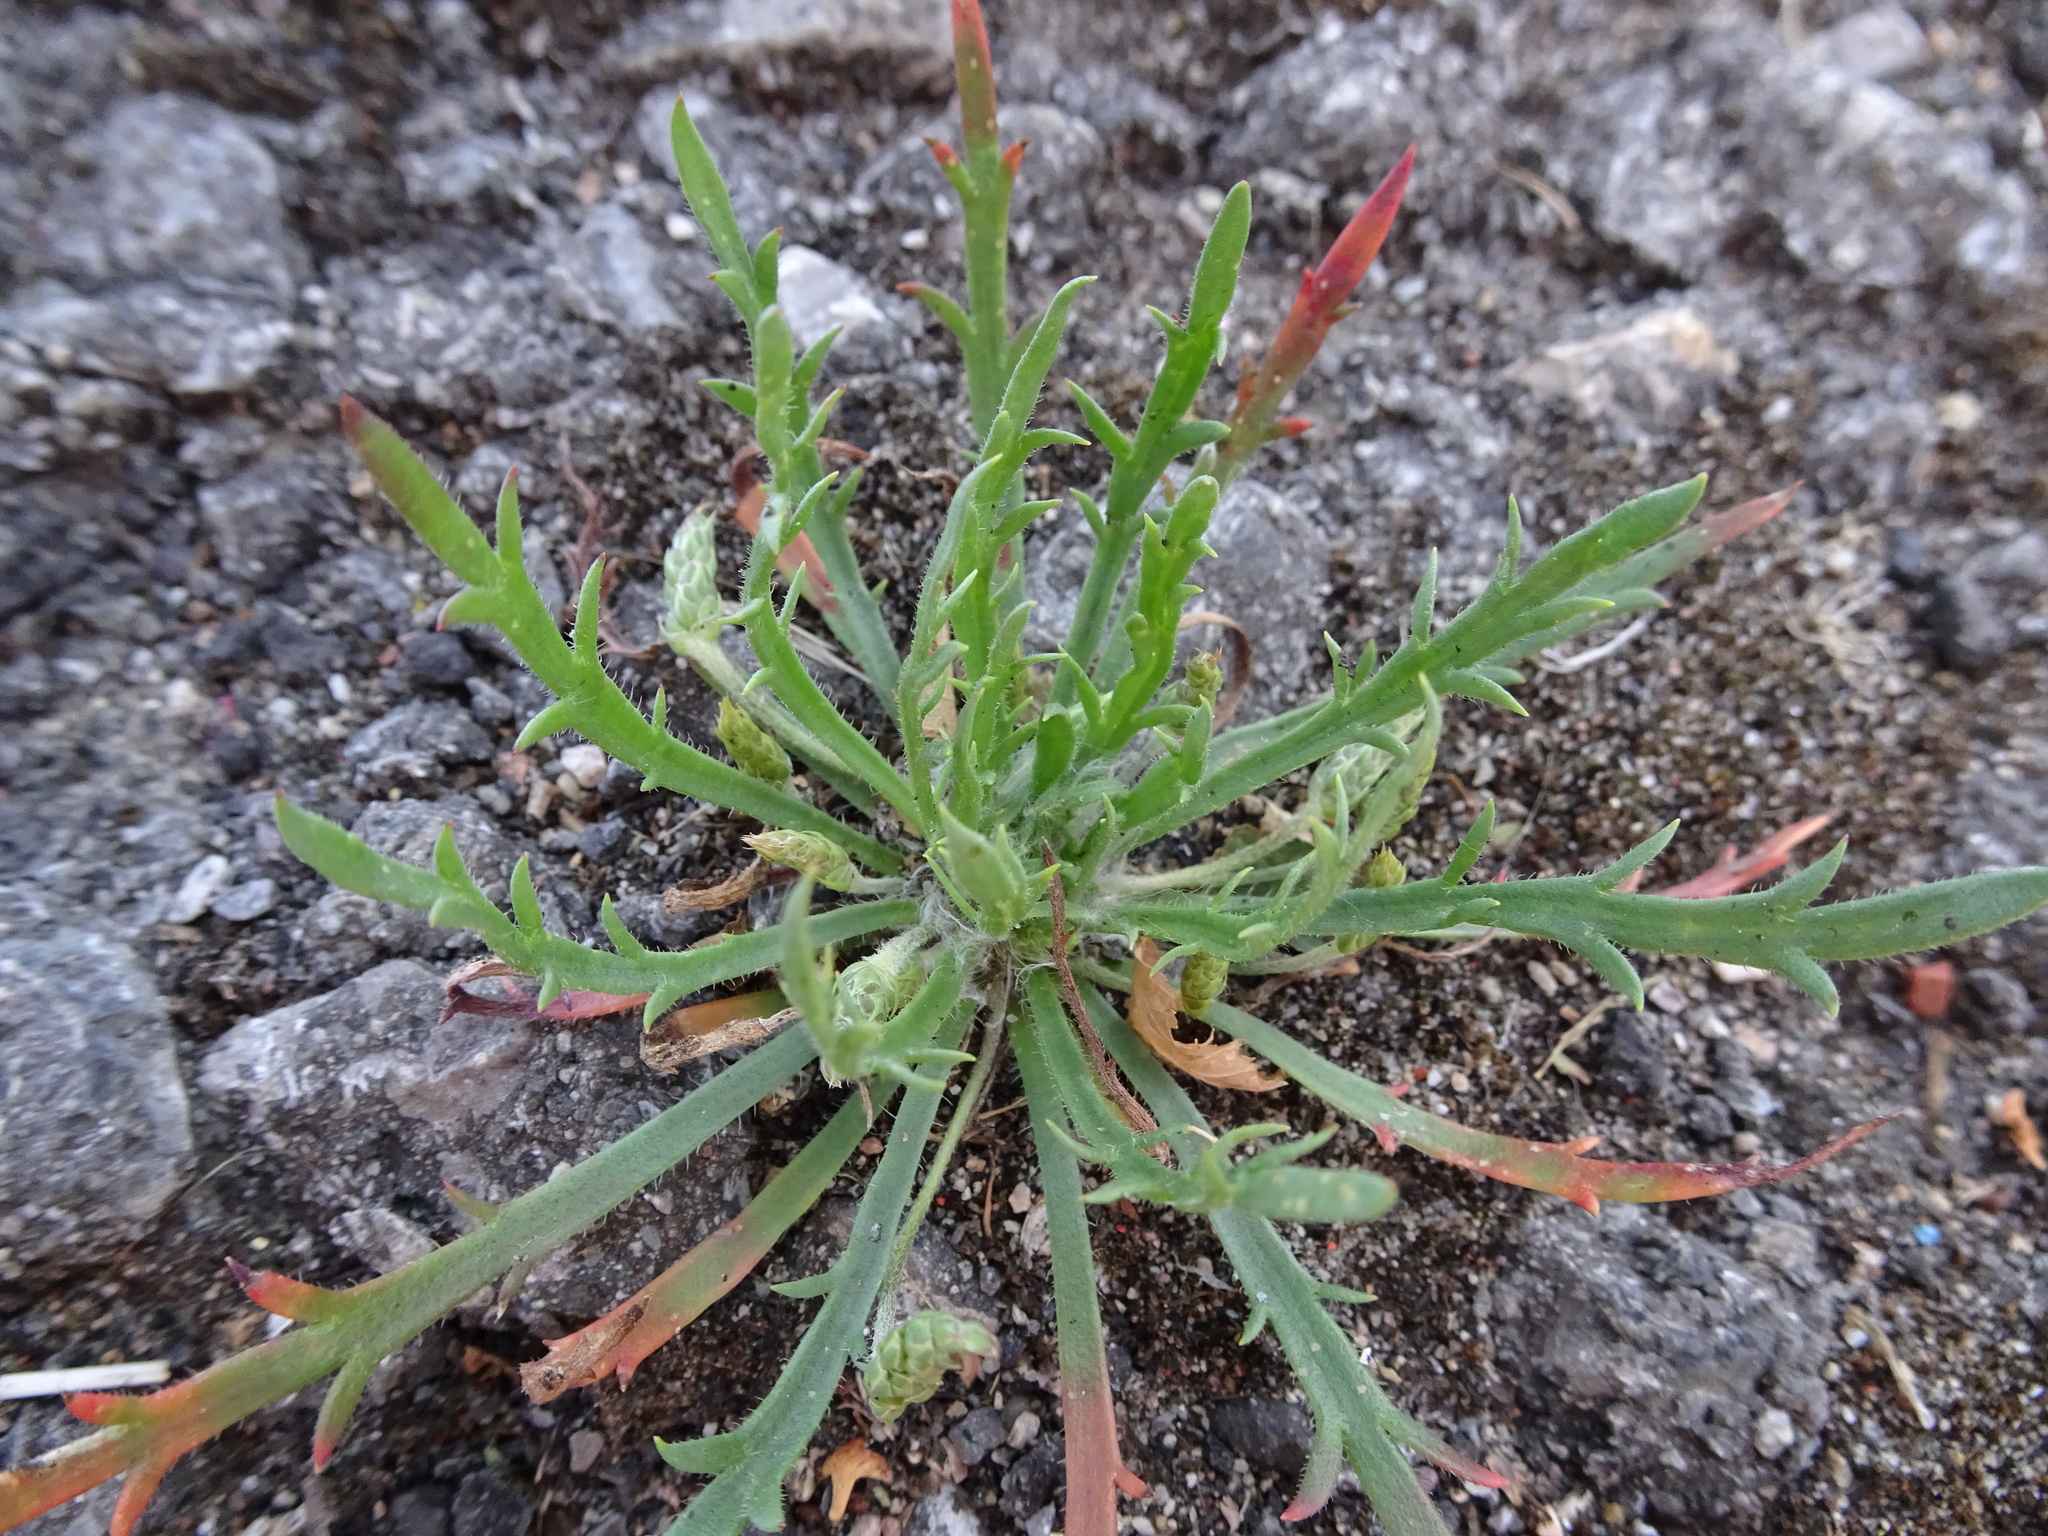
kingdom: Plantae
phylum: Tracheophyta
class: Magnoliopsida
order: Lamiales
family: Plantaginaceae
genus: Plantago
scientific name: Plantago coronopus
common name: Buck's-horn plantain
